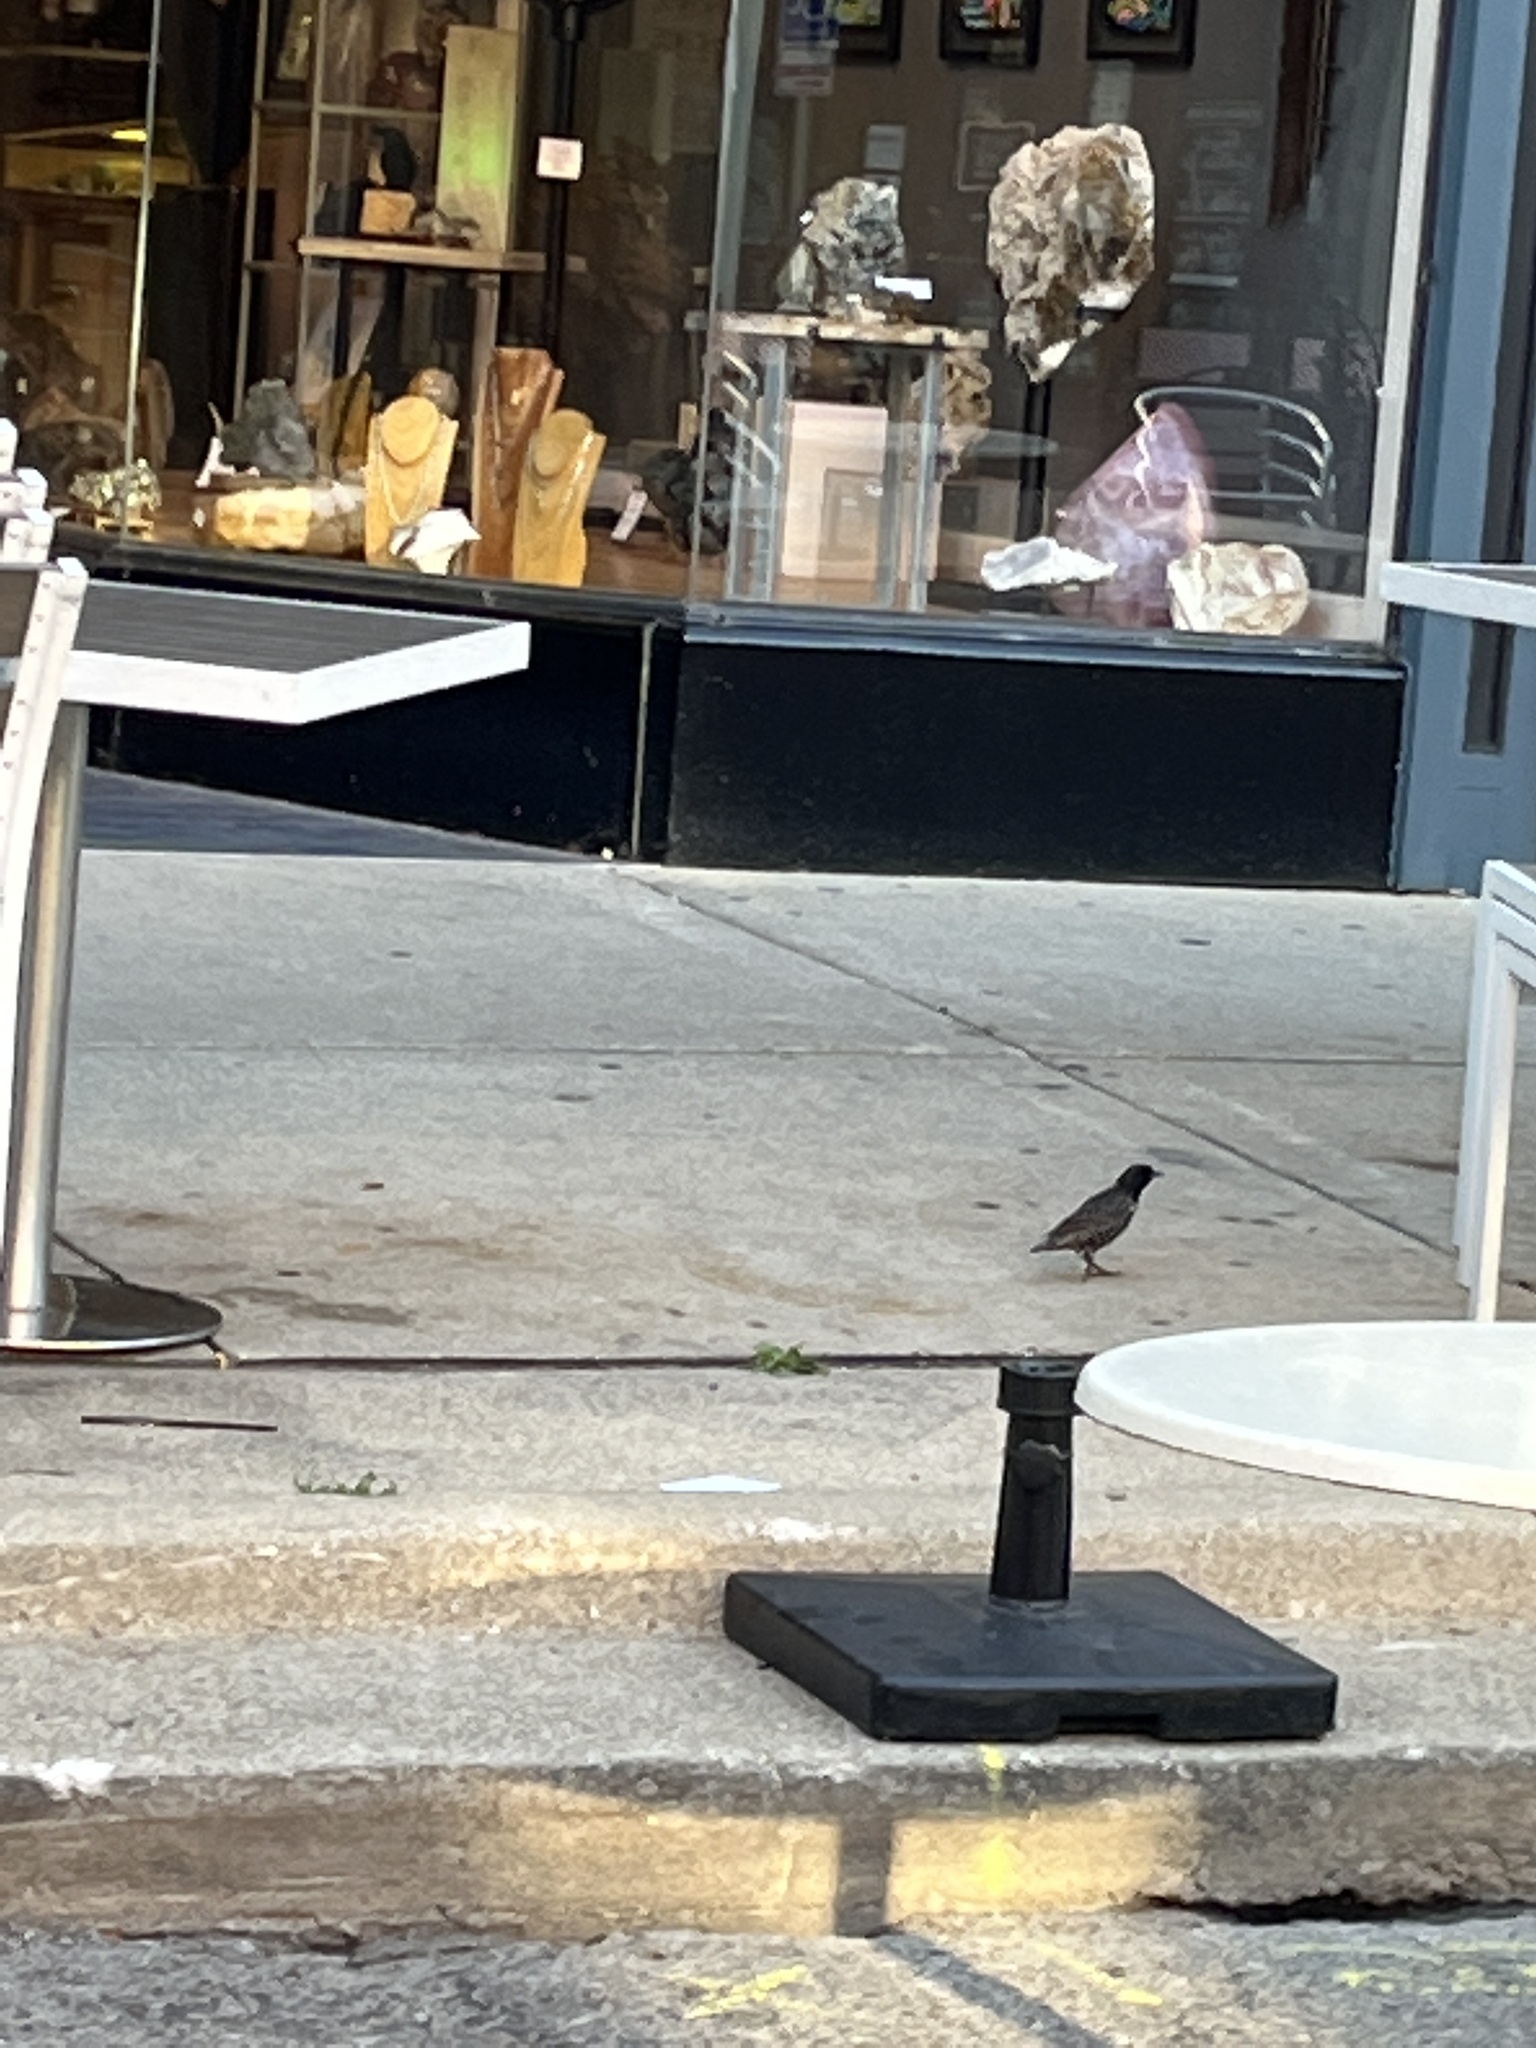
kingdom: Animalia
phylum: Chordata
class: Aves
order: Passeriformes
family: Sturnidae
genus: Sturnus
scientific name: Sturnus vulgaris
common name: Common starling
